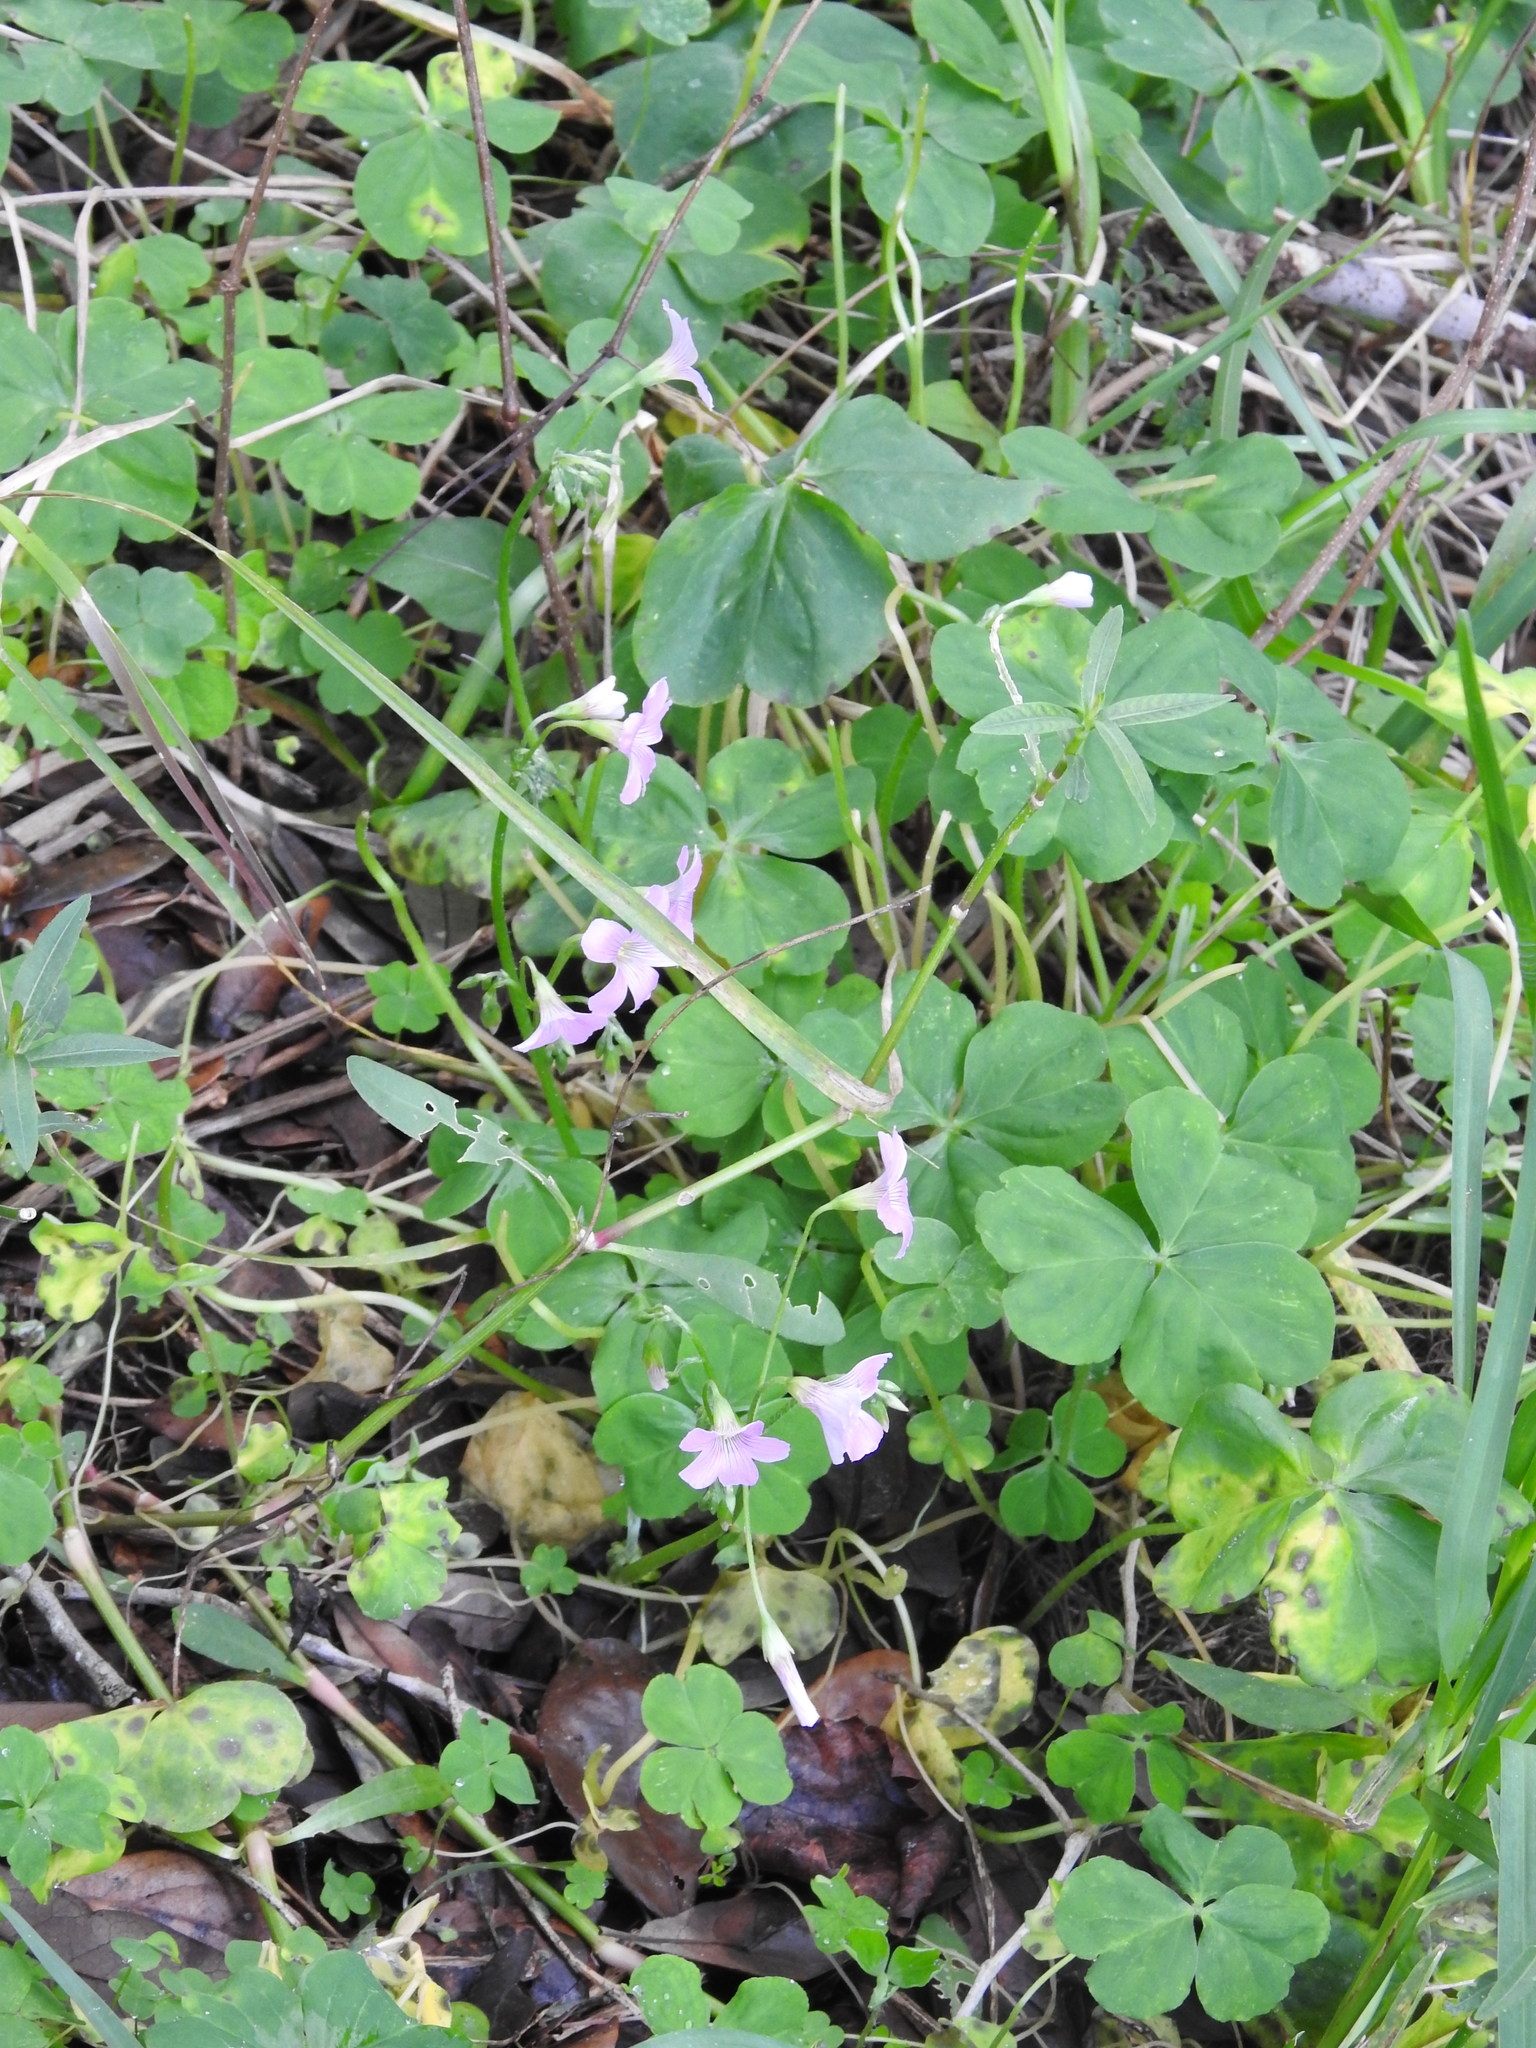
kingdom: Plantae
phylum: Tracheophyta
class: Magnoliopsida
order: Oxalidales
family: Oxalidaceae
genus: Oxalis
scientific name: Oxalis debilis
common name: Large-flowered pink-sorrel
